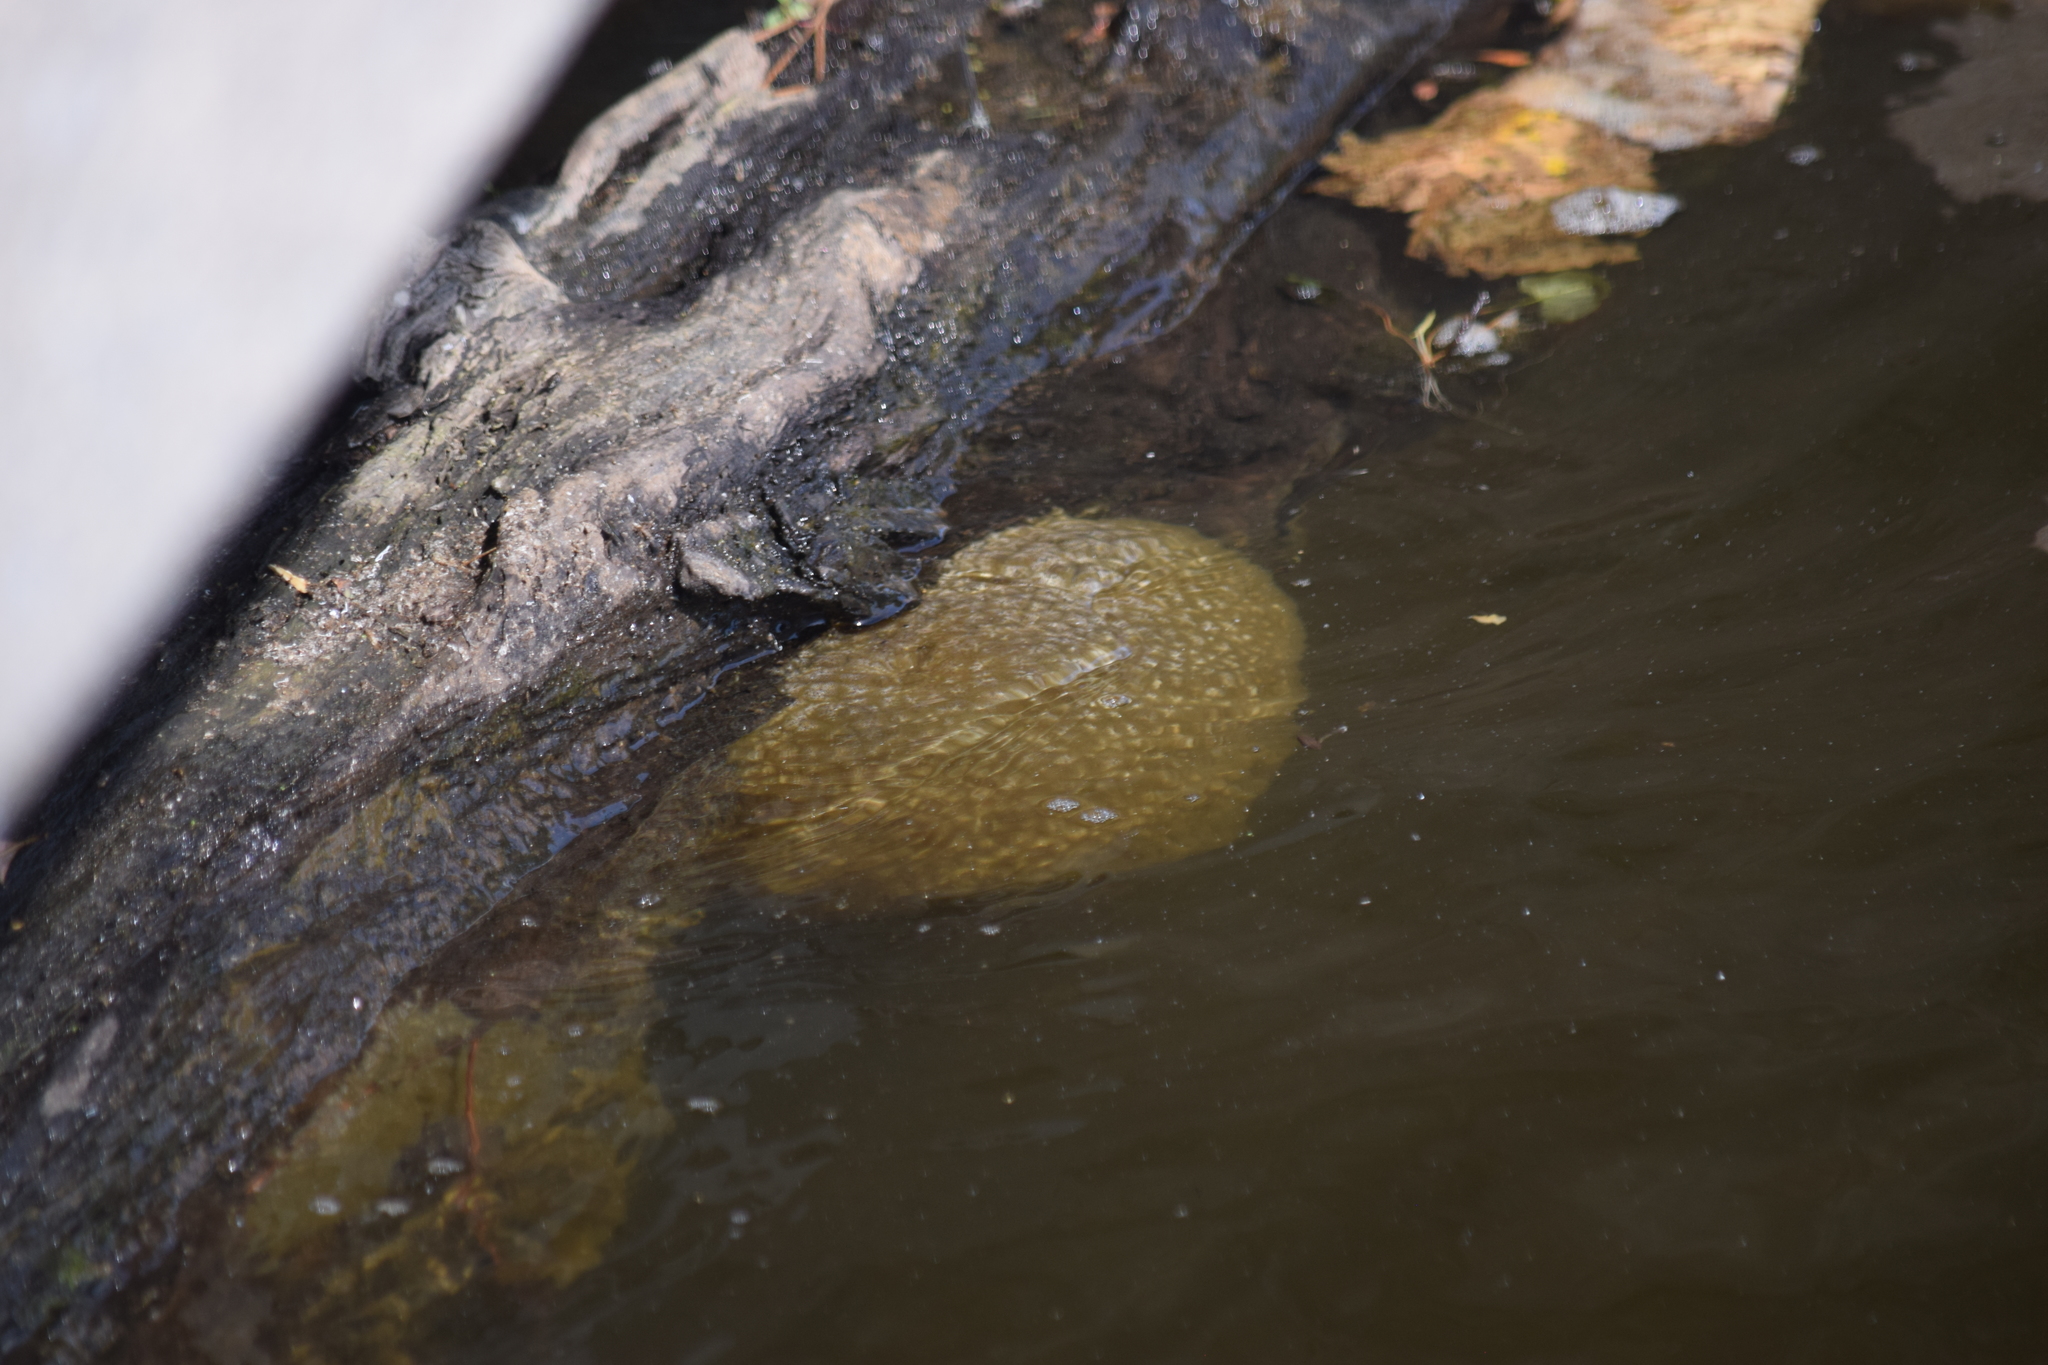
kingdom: Animalia
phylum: Bryozoa
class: Phylactolaemata
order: Plumatellida
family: Pectinatellidae
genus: Pectinatella
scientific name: Pectinatella magnifica
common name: Magnificent bryozoan
